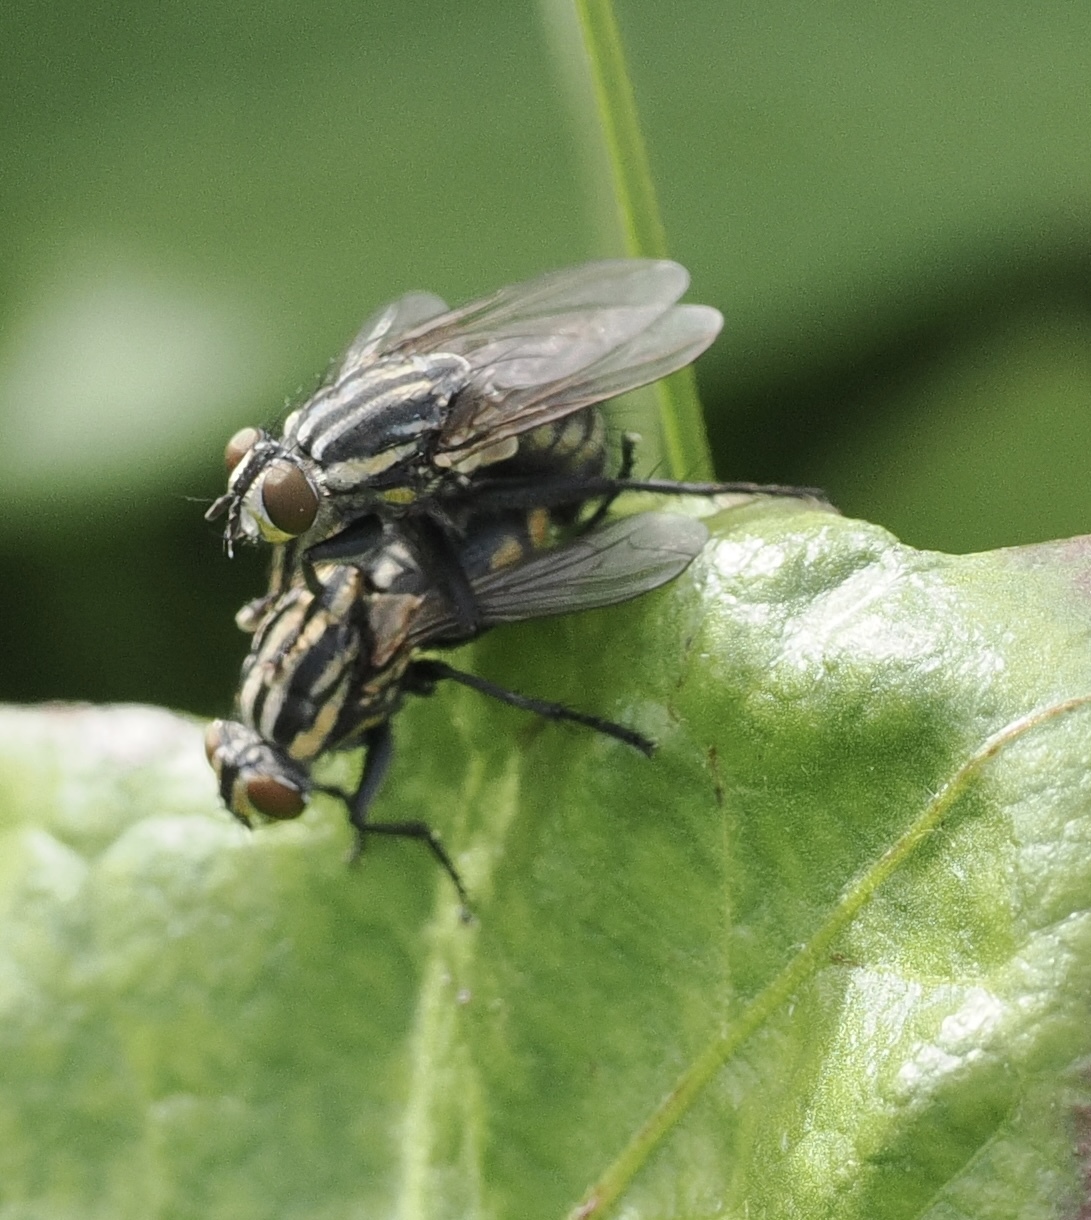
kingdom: Animalia
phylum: Arthropoda
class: Insecta
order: Diptera
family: Sarcophagidae
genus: Oxysarcodexia
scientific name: Oxysarcodexia varia
